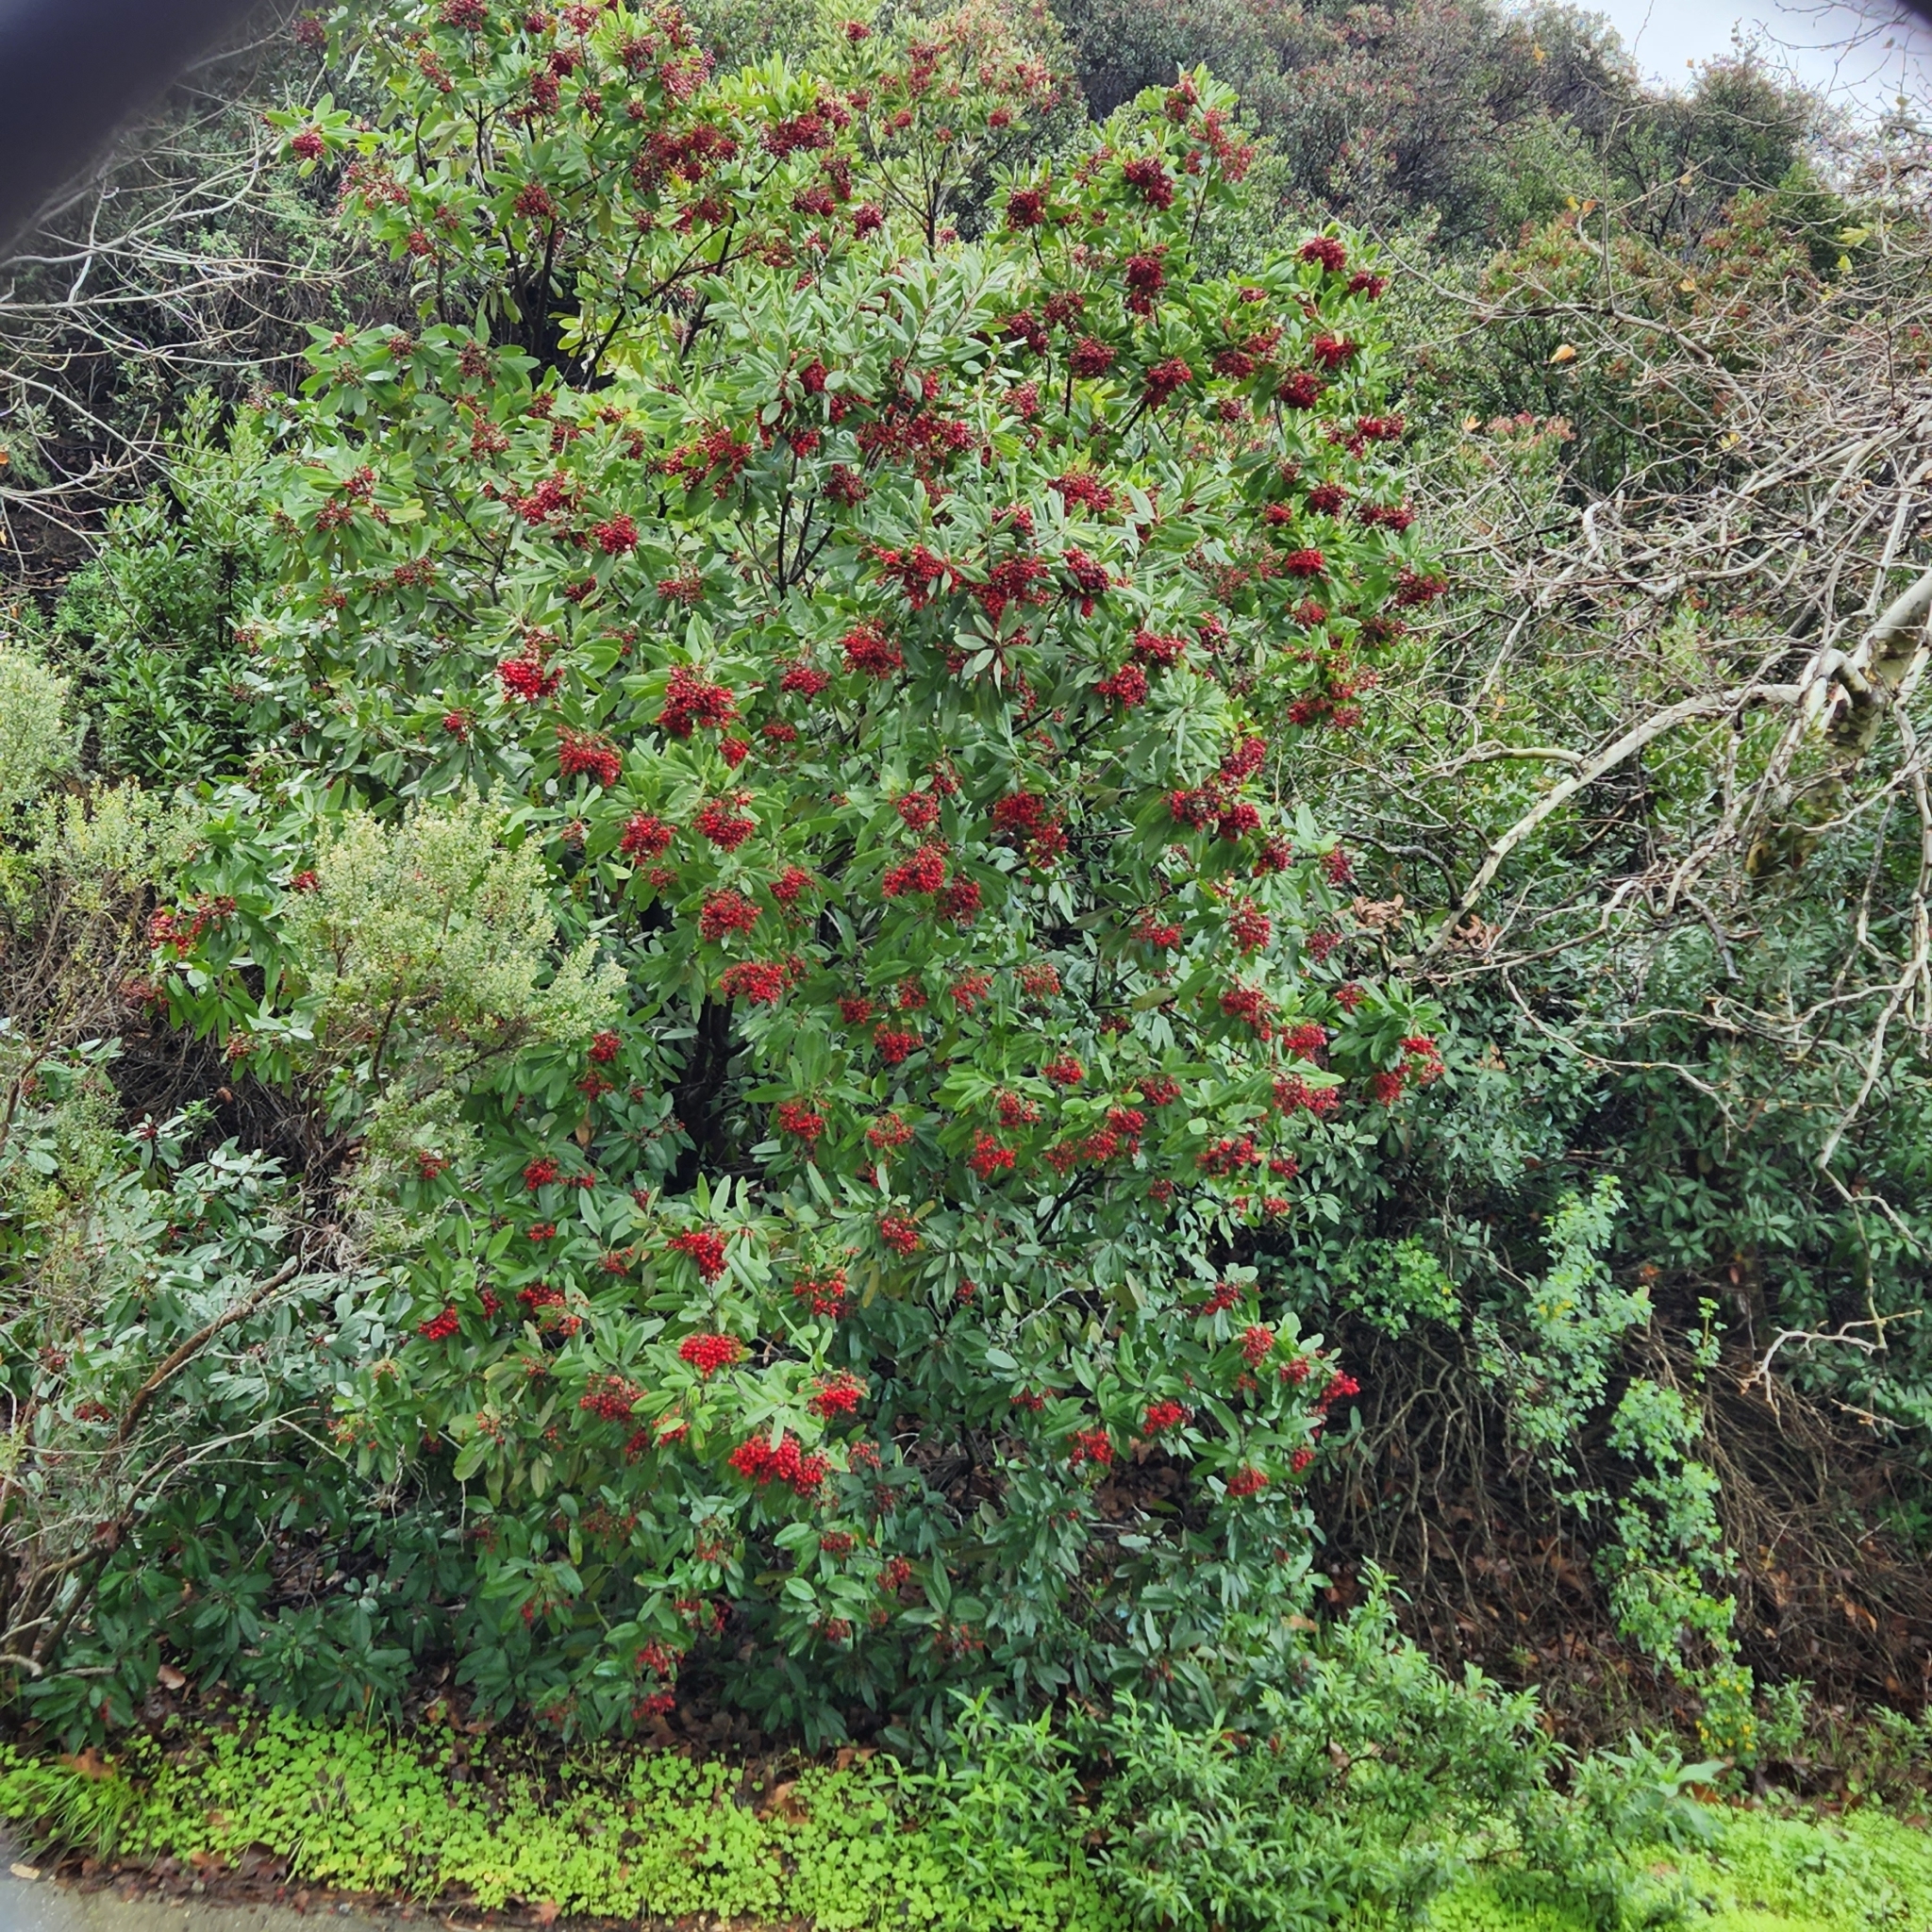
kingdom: Plantae
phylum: Tracheophyta
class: Magnoliopsida
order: Rosales
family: Rosaceae
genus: Heteromeles
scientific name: Heteromeles arbutifolia
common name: California-holly
